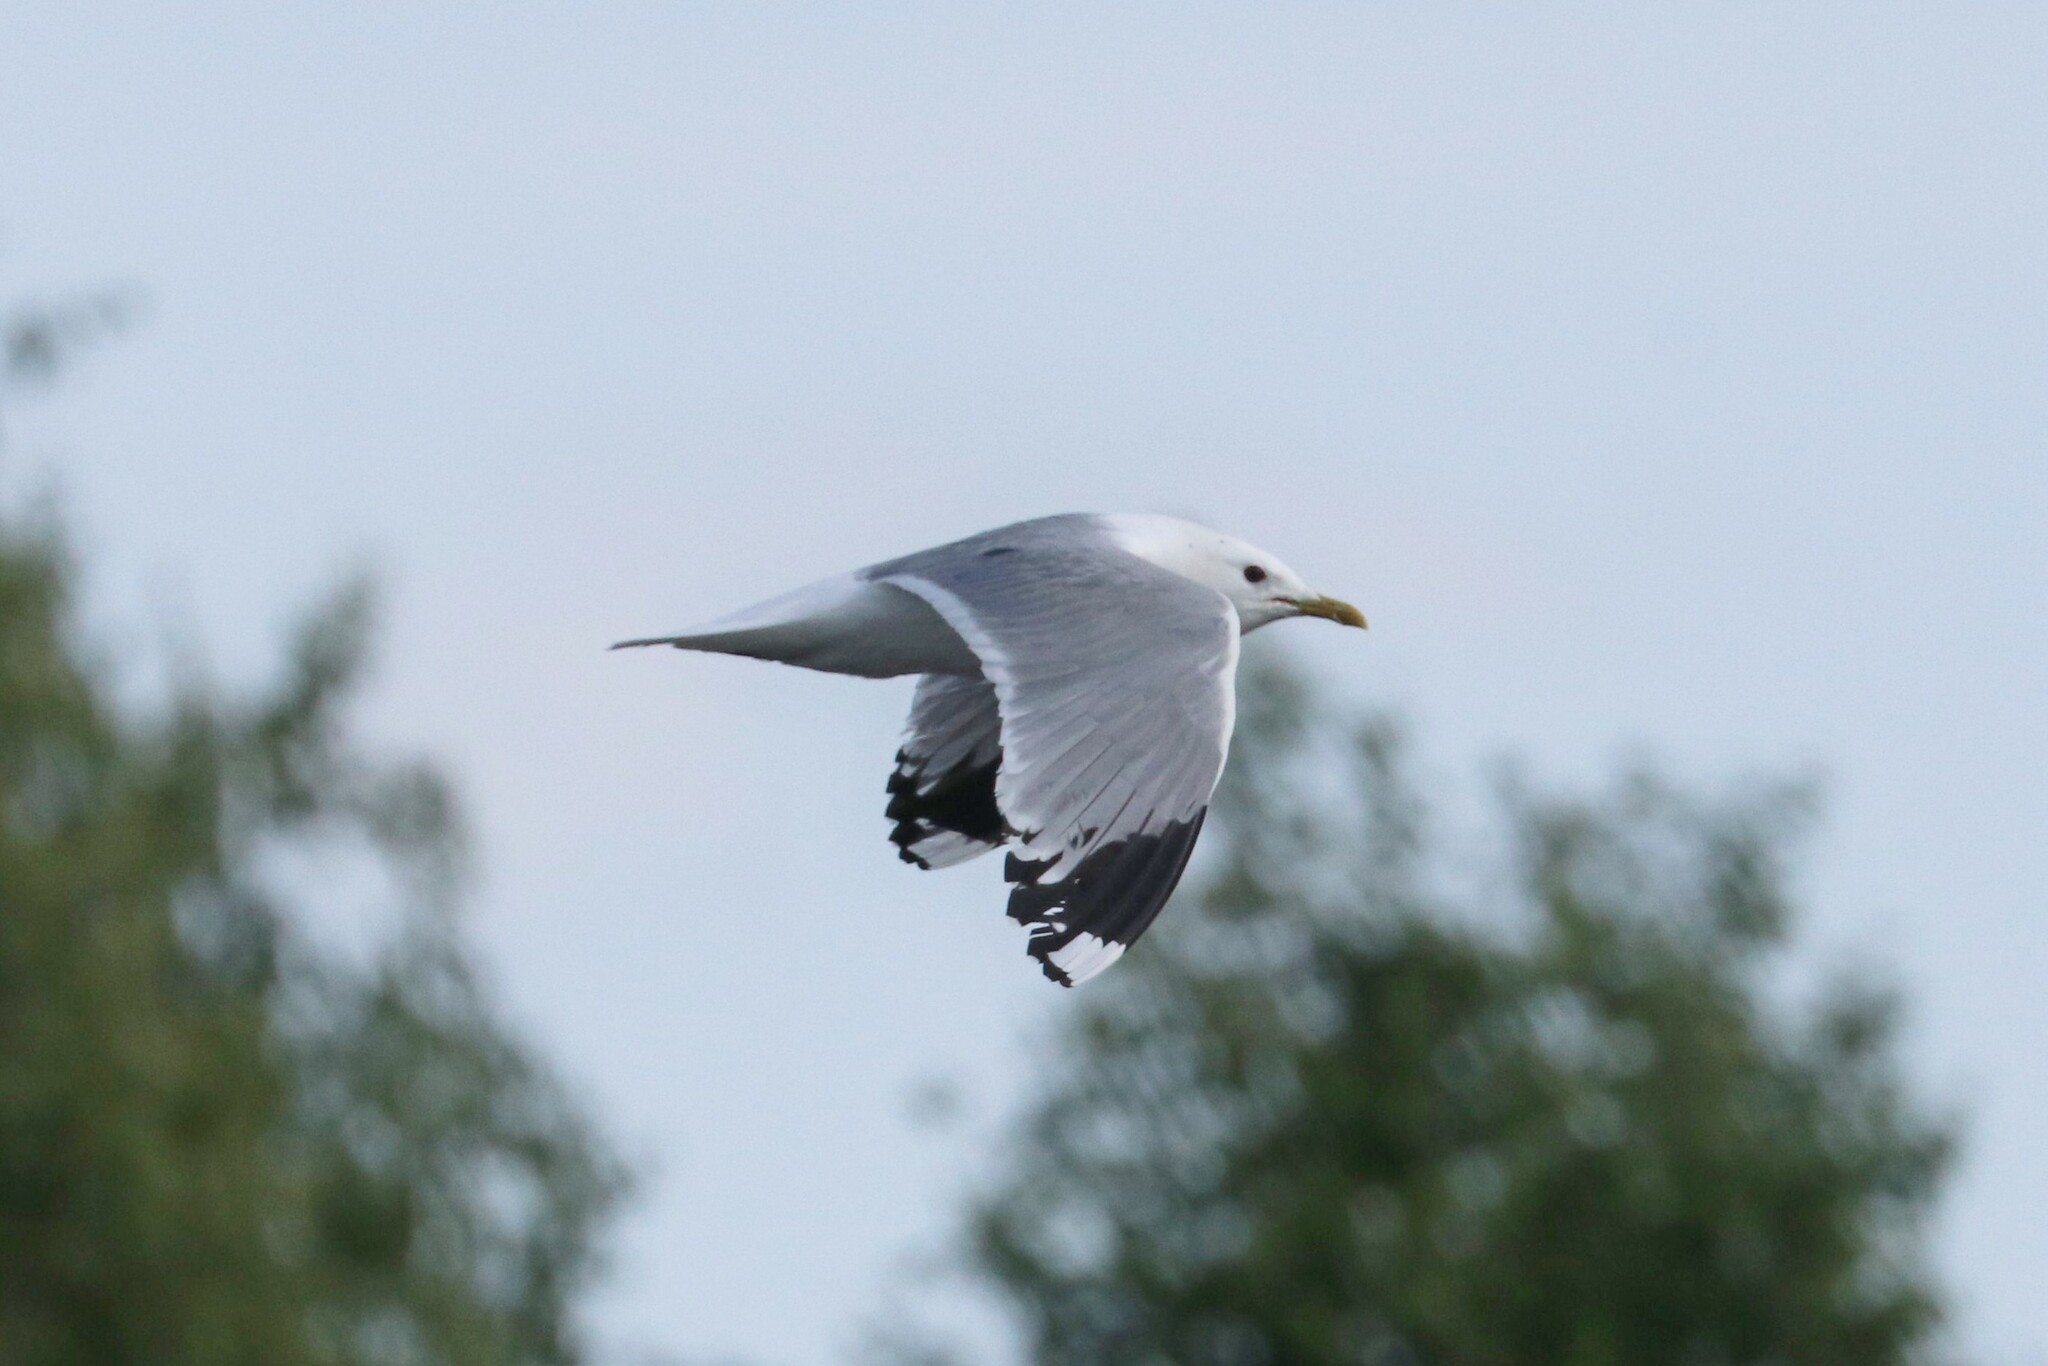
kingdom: Animalia
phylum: Chordata
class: Aves
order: Charadriiformes
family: Laridae
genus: Larus
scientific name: Larus canus
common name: Mew gull
